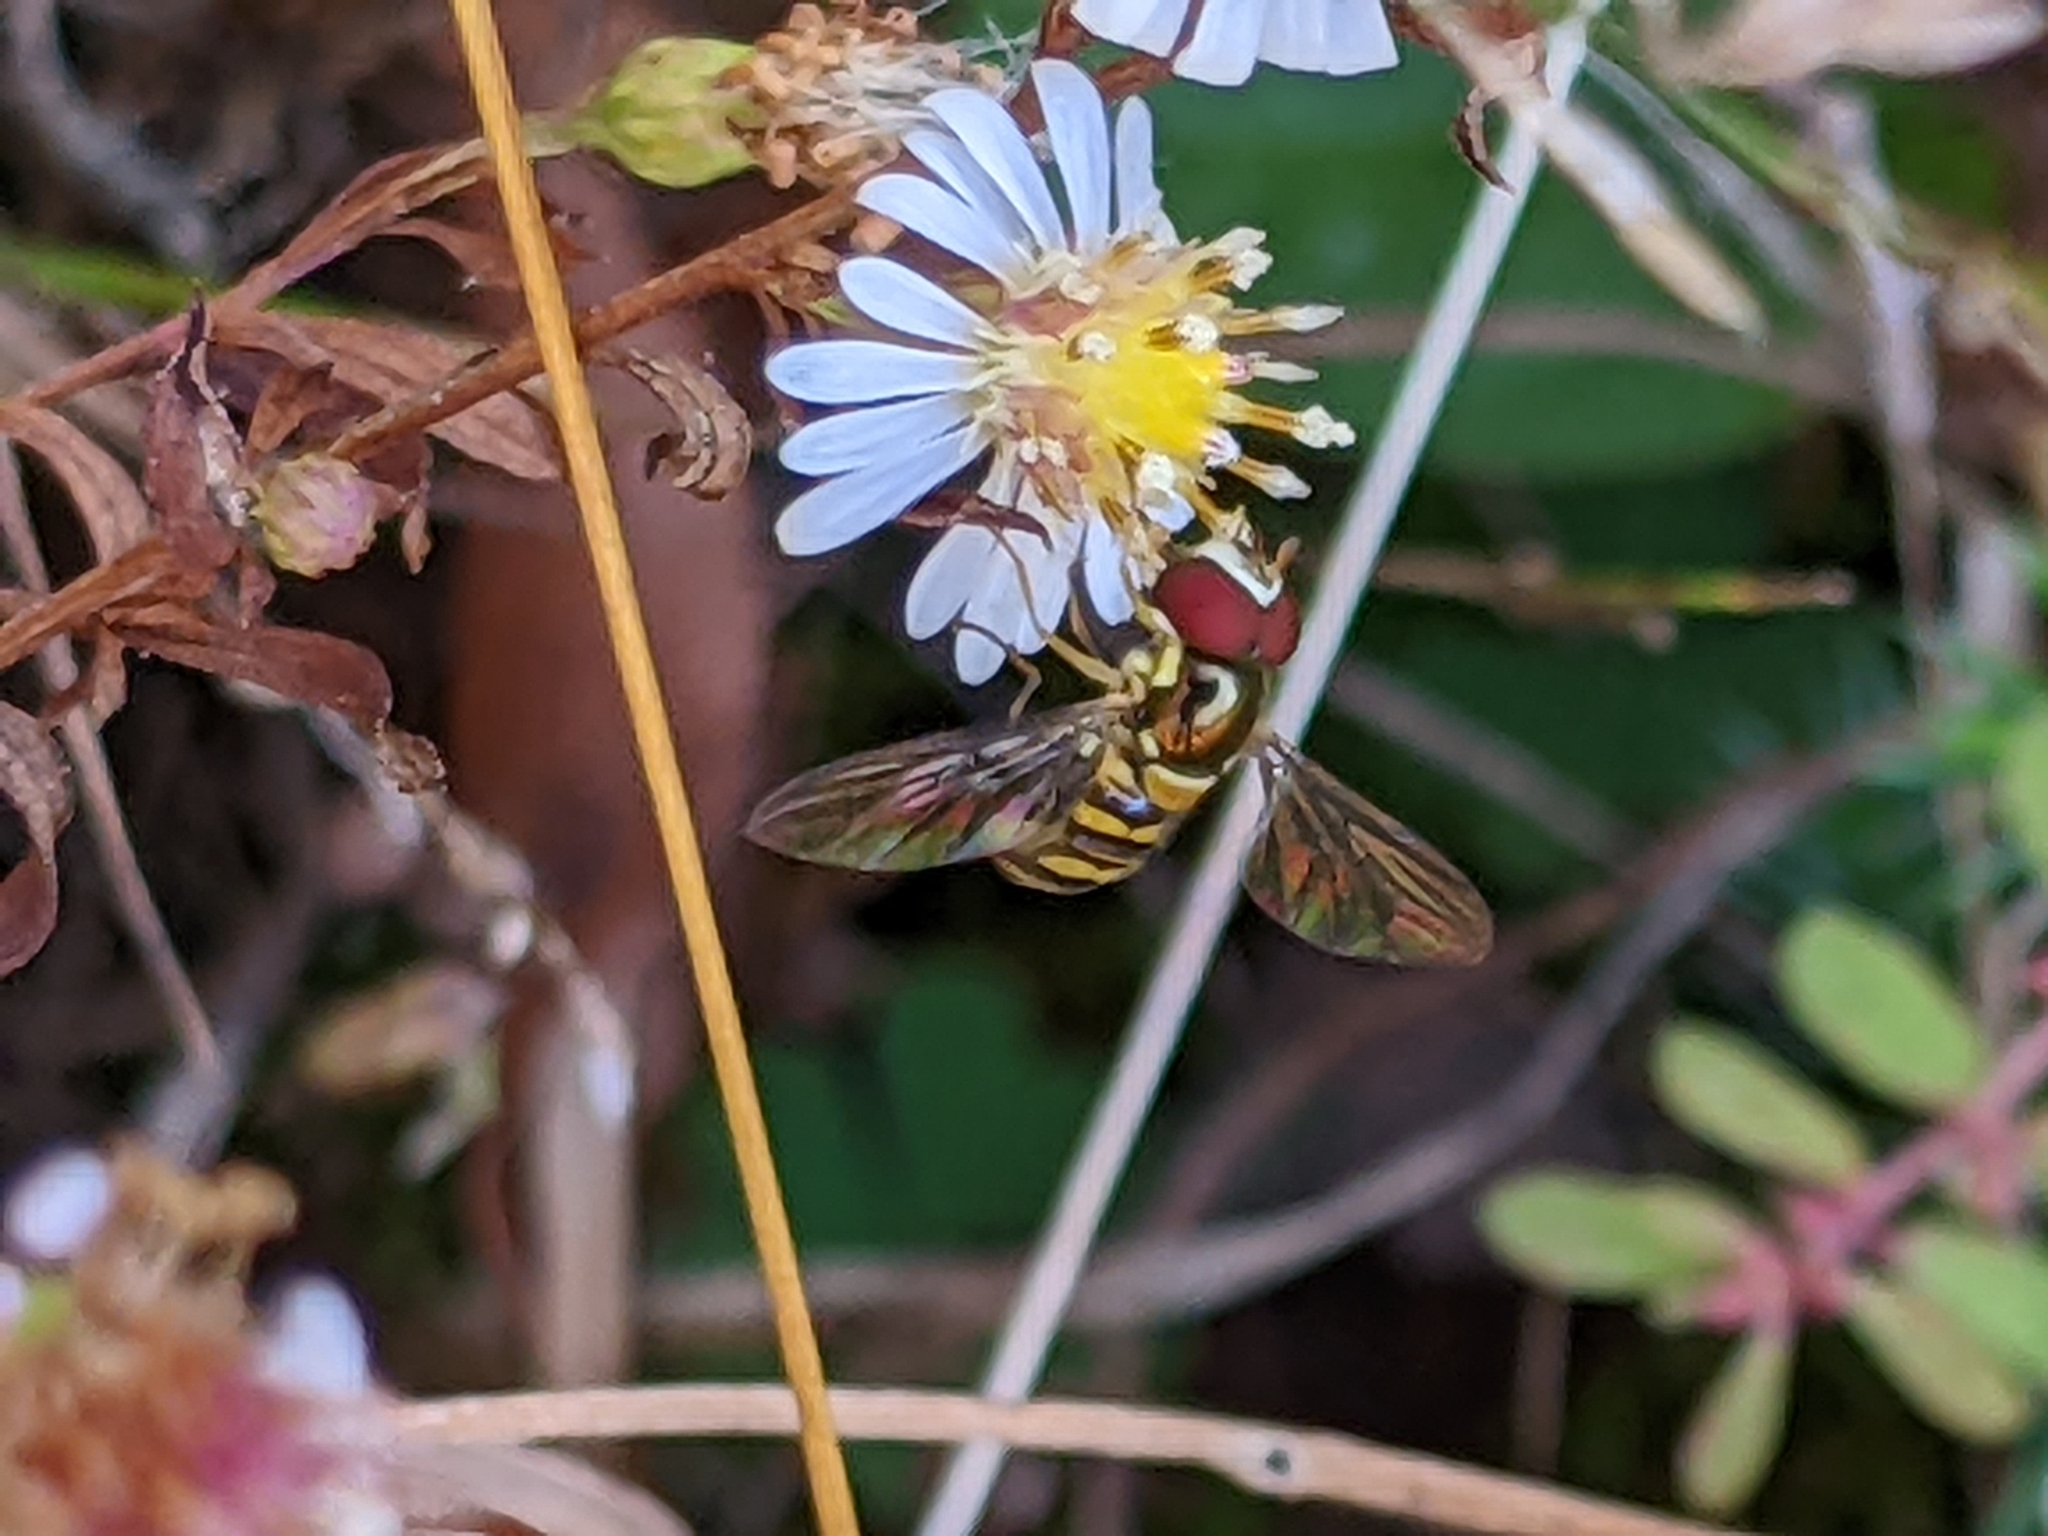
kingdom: Animalia
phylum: Arthropoda
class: Insecta
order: Diptera
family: Syrphidae
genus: Allograpta
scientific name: Allograpta obliqua
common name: Common oblique syrphid
